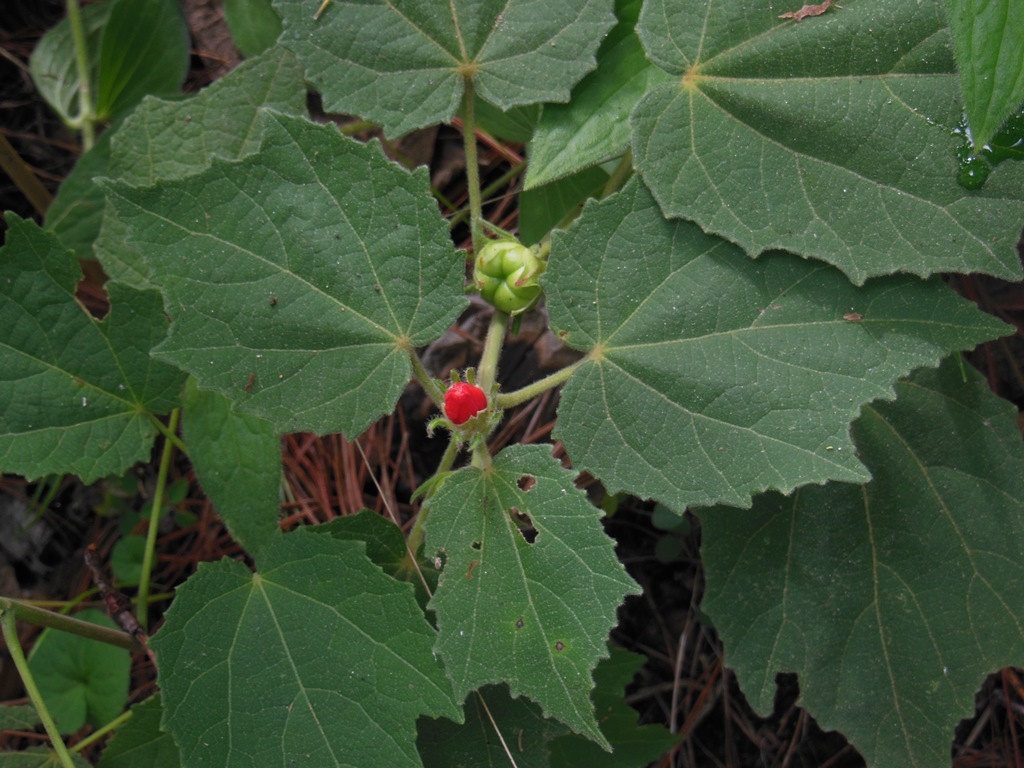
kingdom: Plantae
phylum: Tracheophyta
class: Magnoliopsida
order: Malvales
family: Malvaceae
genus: Malvaviscus
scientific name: Malvaviscus arboreus
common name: Wax mallow
